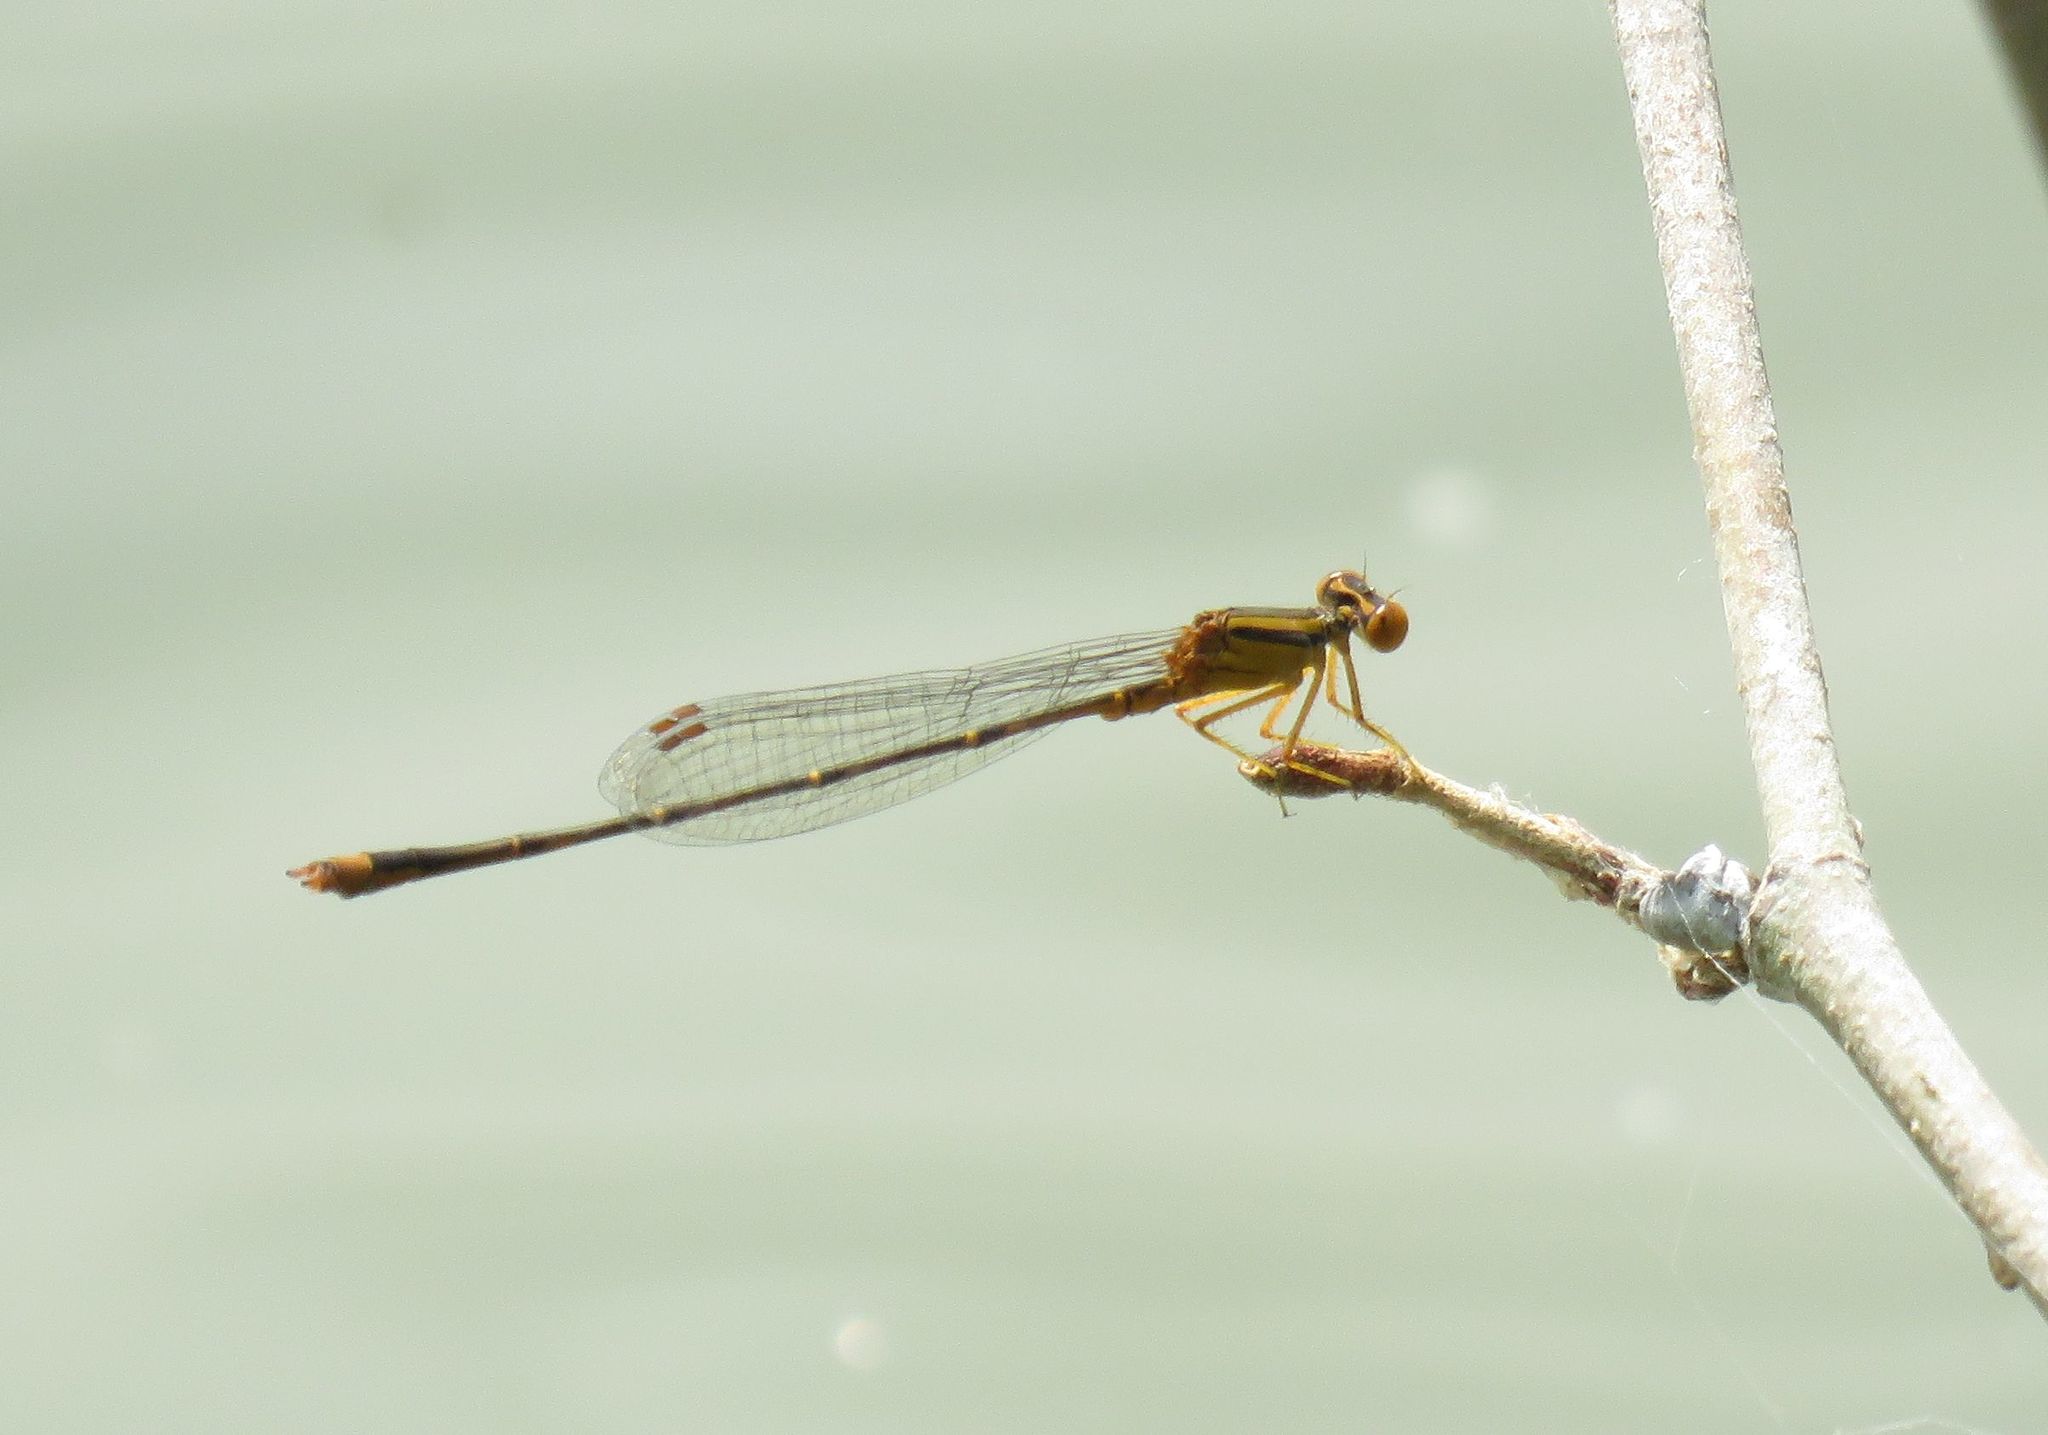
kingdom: Animalia
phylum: Arthropoda
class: Insecta
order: Odonata
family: Coenagrionidae
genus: Enallagma
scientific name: Enallagma signatum
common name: Orange bluet
